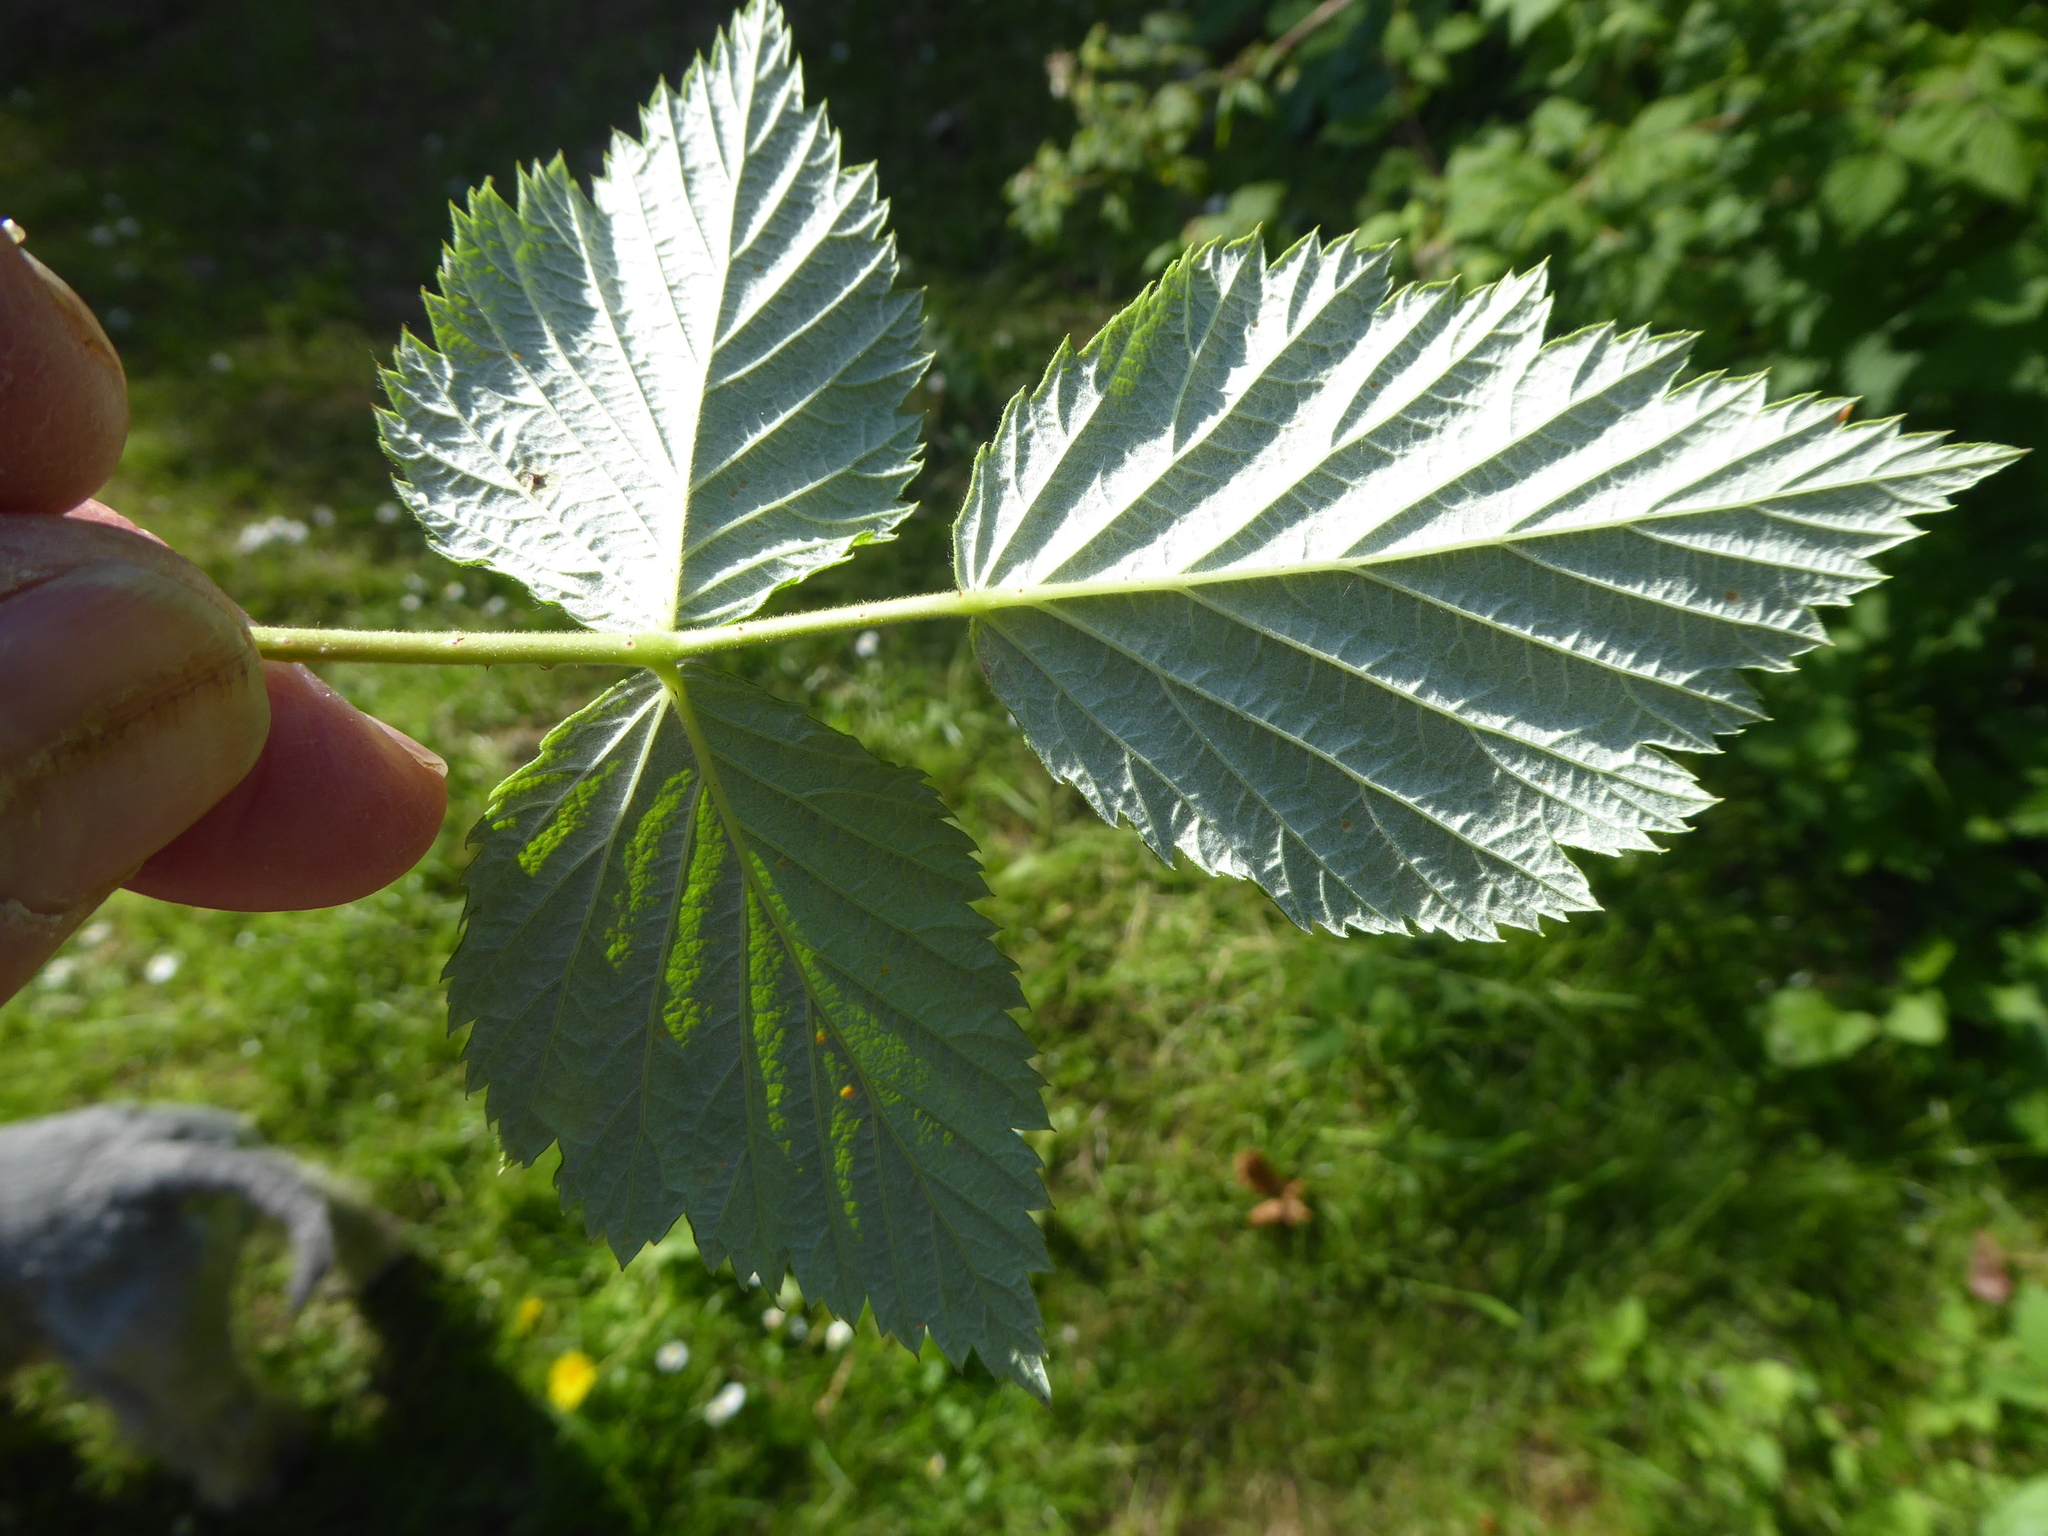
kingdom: Fungi
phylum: Basidiomycota
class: Pucciniomycetes
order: Pucciniales
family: Phragmidiaceae
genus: Phragmidium
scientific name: Phragmidium rubi-idaei
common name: Raspberry rust
